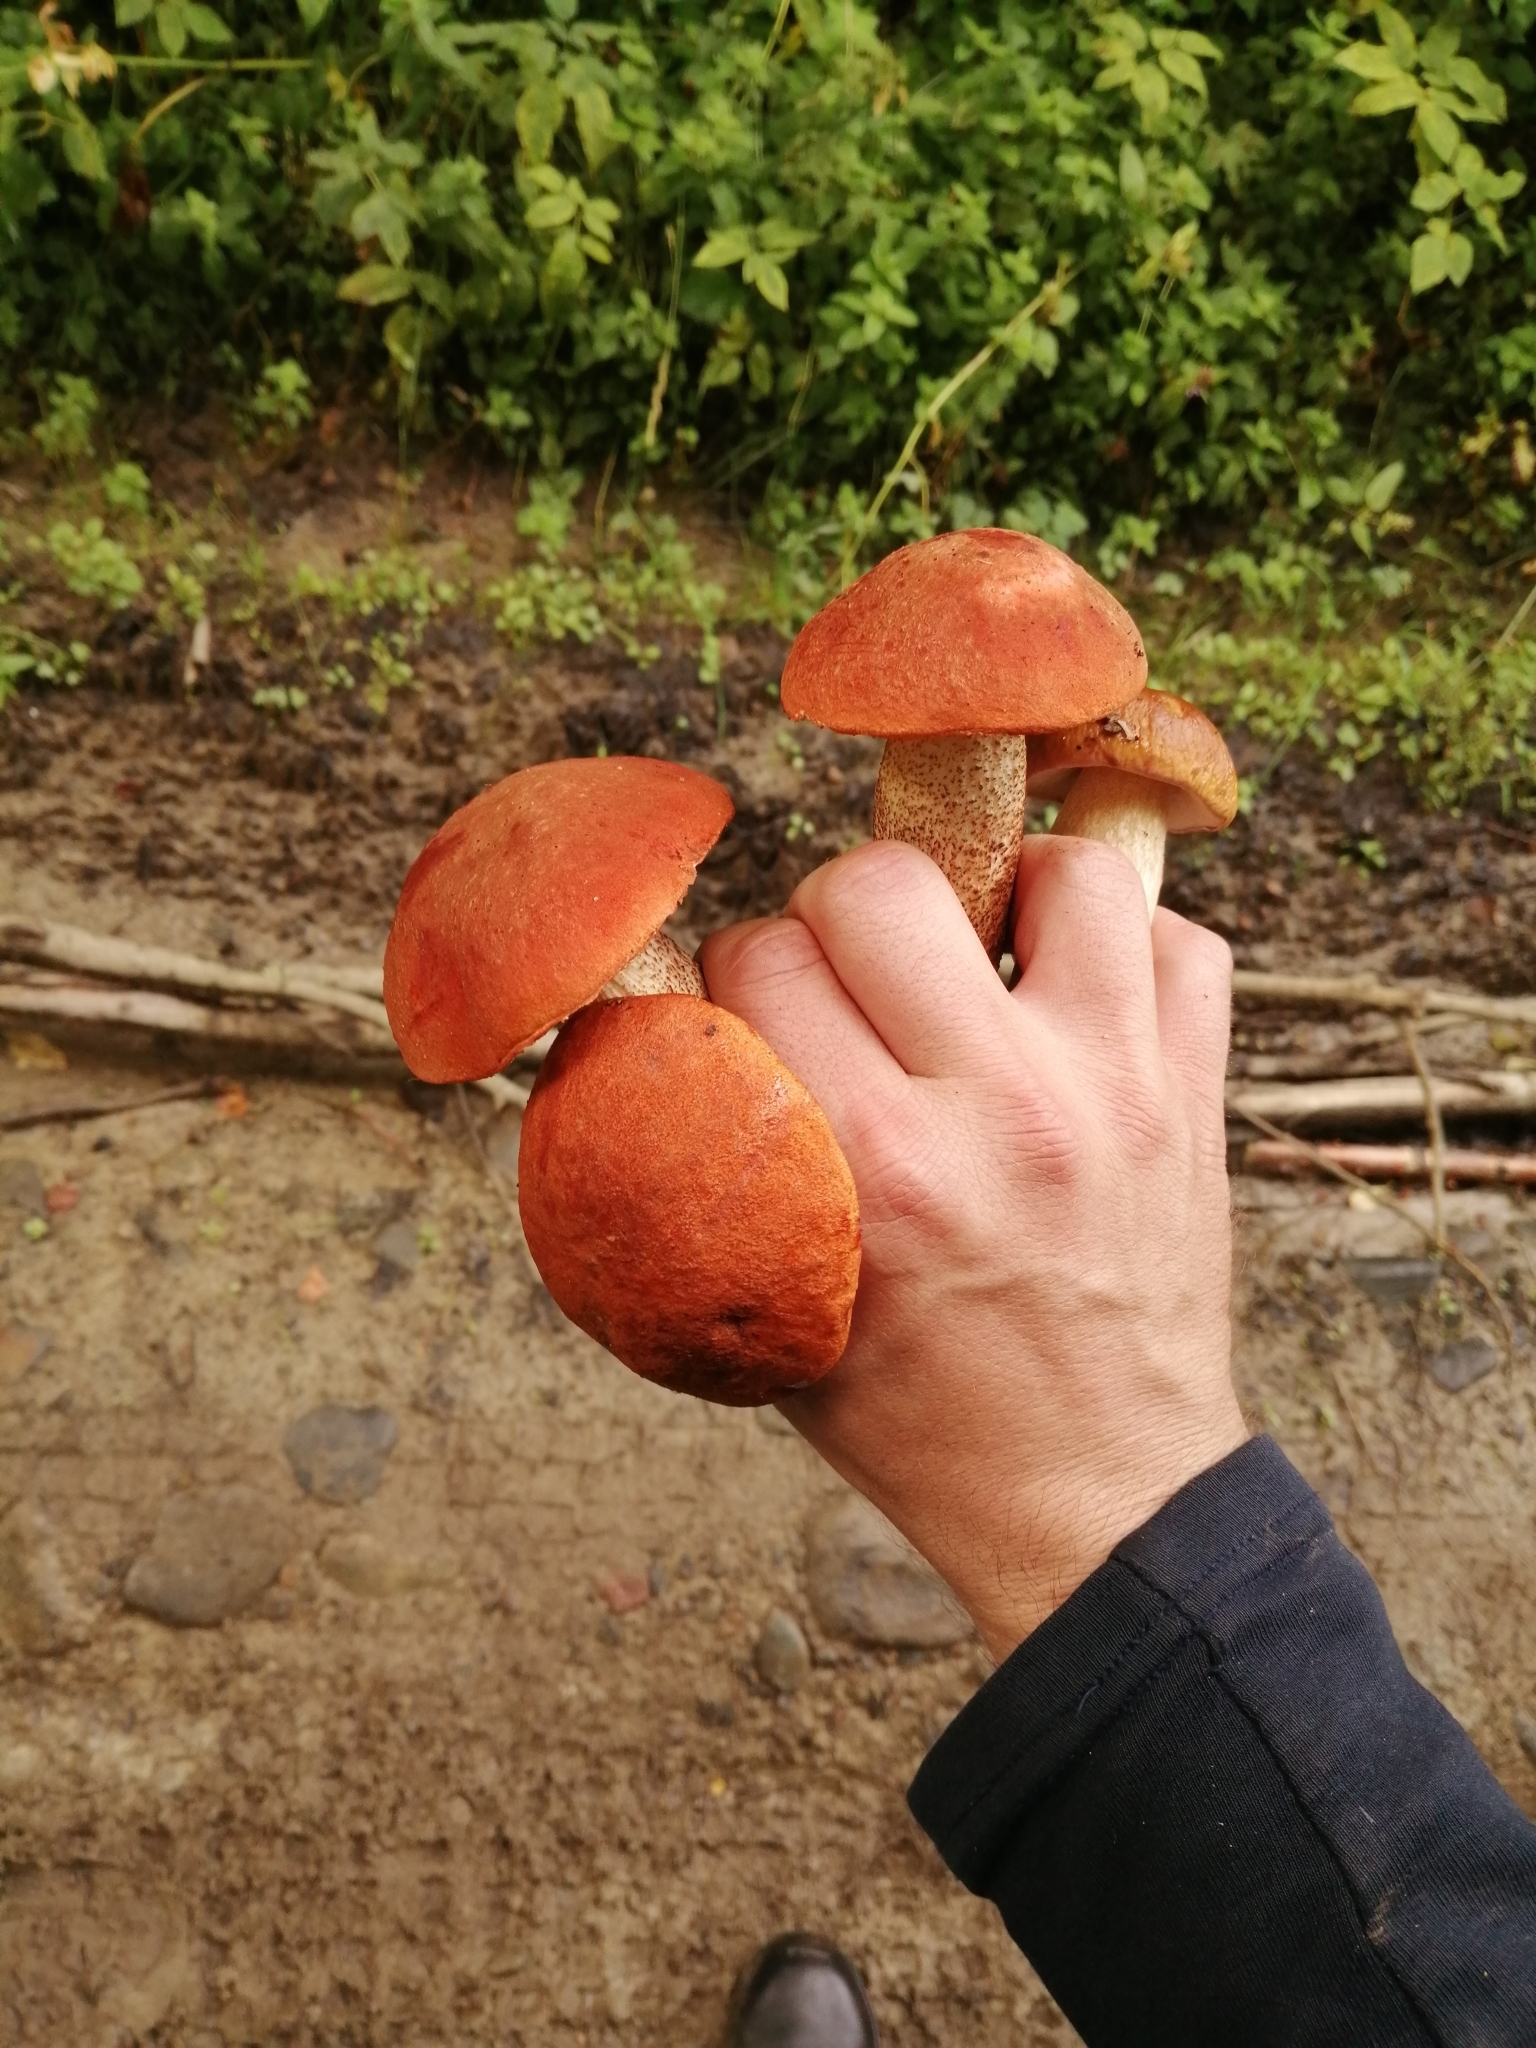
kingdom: Fungi
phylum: Basidiomycota
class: Agaricomycetes
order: Boletales
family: Boletaceae
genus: Leccinum
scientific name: Leccinum aurantiacum
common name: Orange bolete
